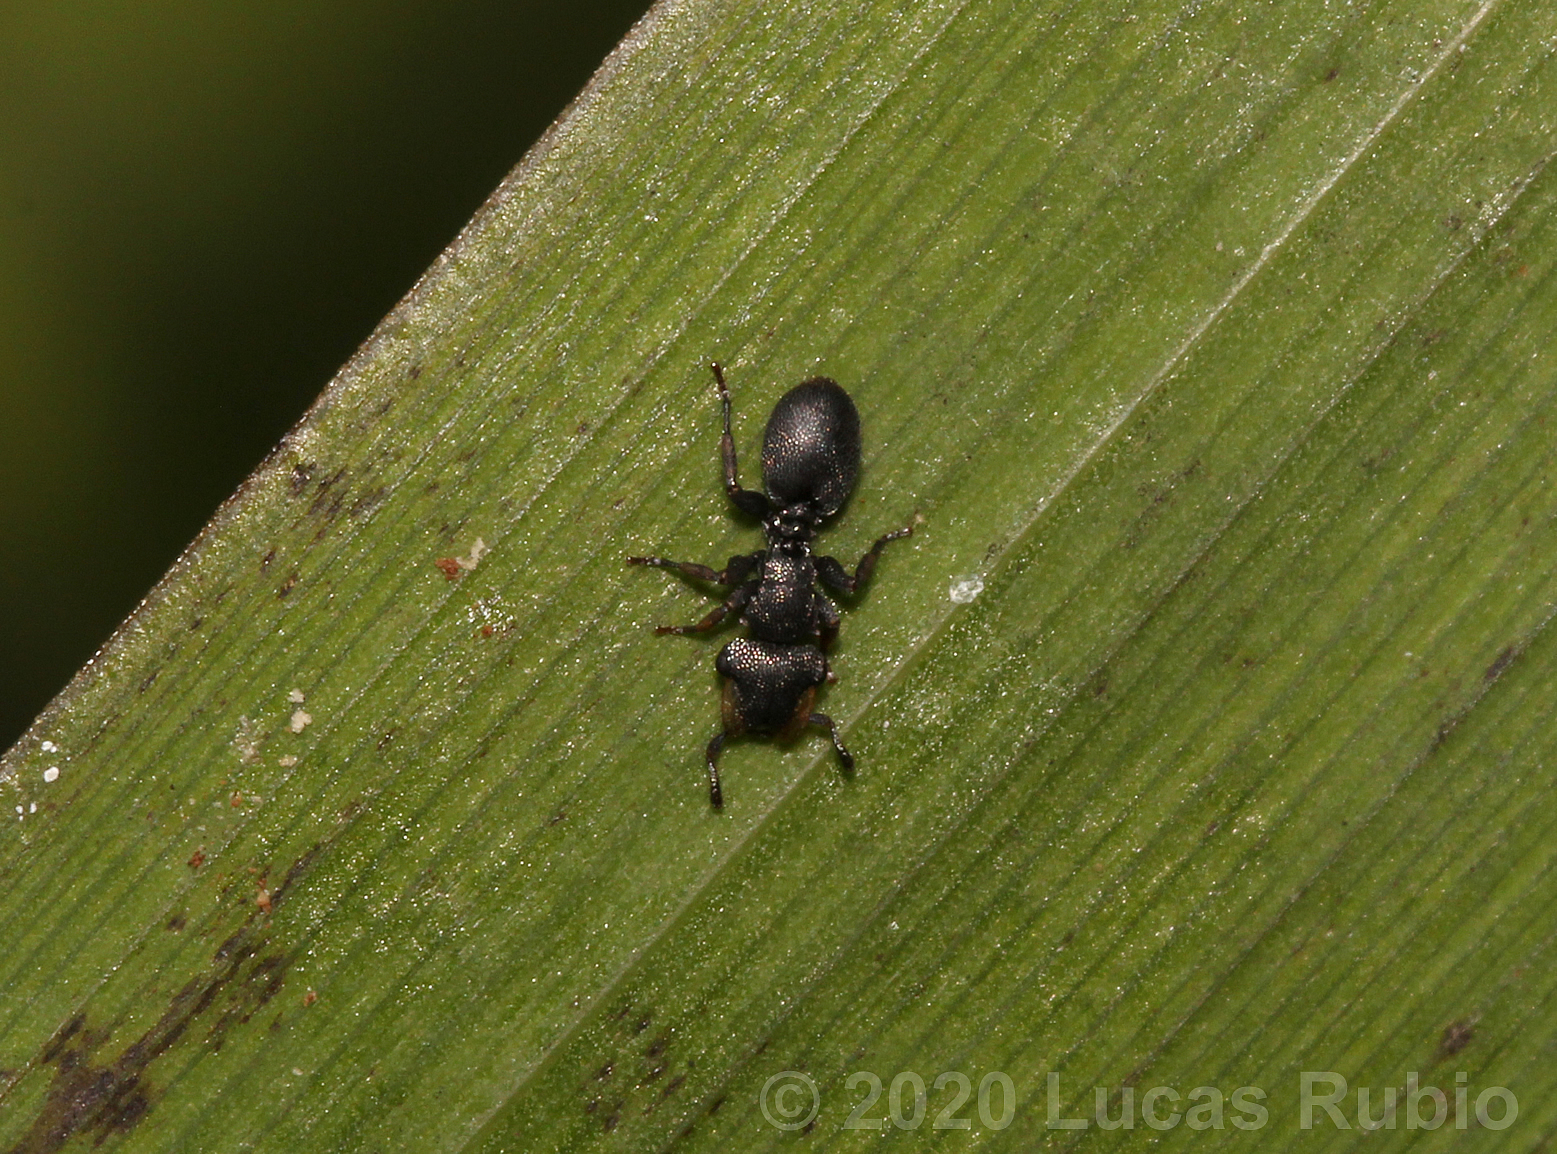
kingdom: Animalia
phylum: Arthropoda
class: Insecta
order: Hymenoptera
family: Formicidae
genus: Cephalotes
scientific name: Cephalotes jheringi
